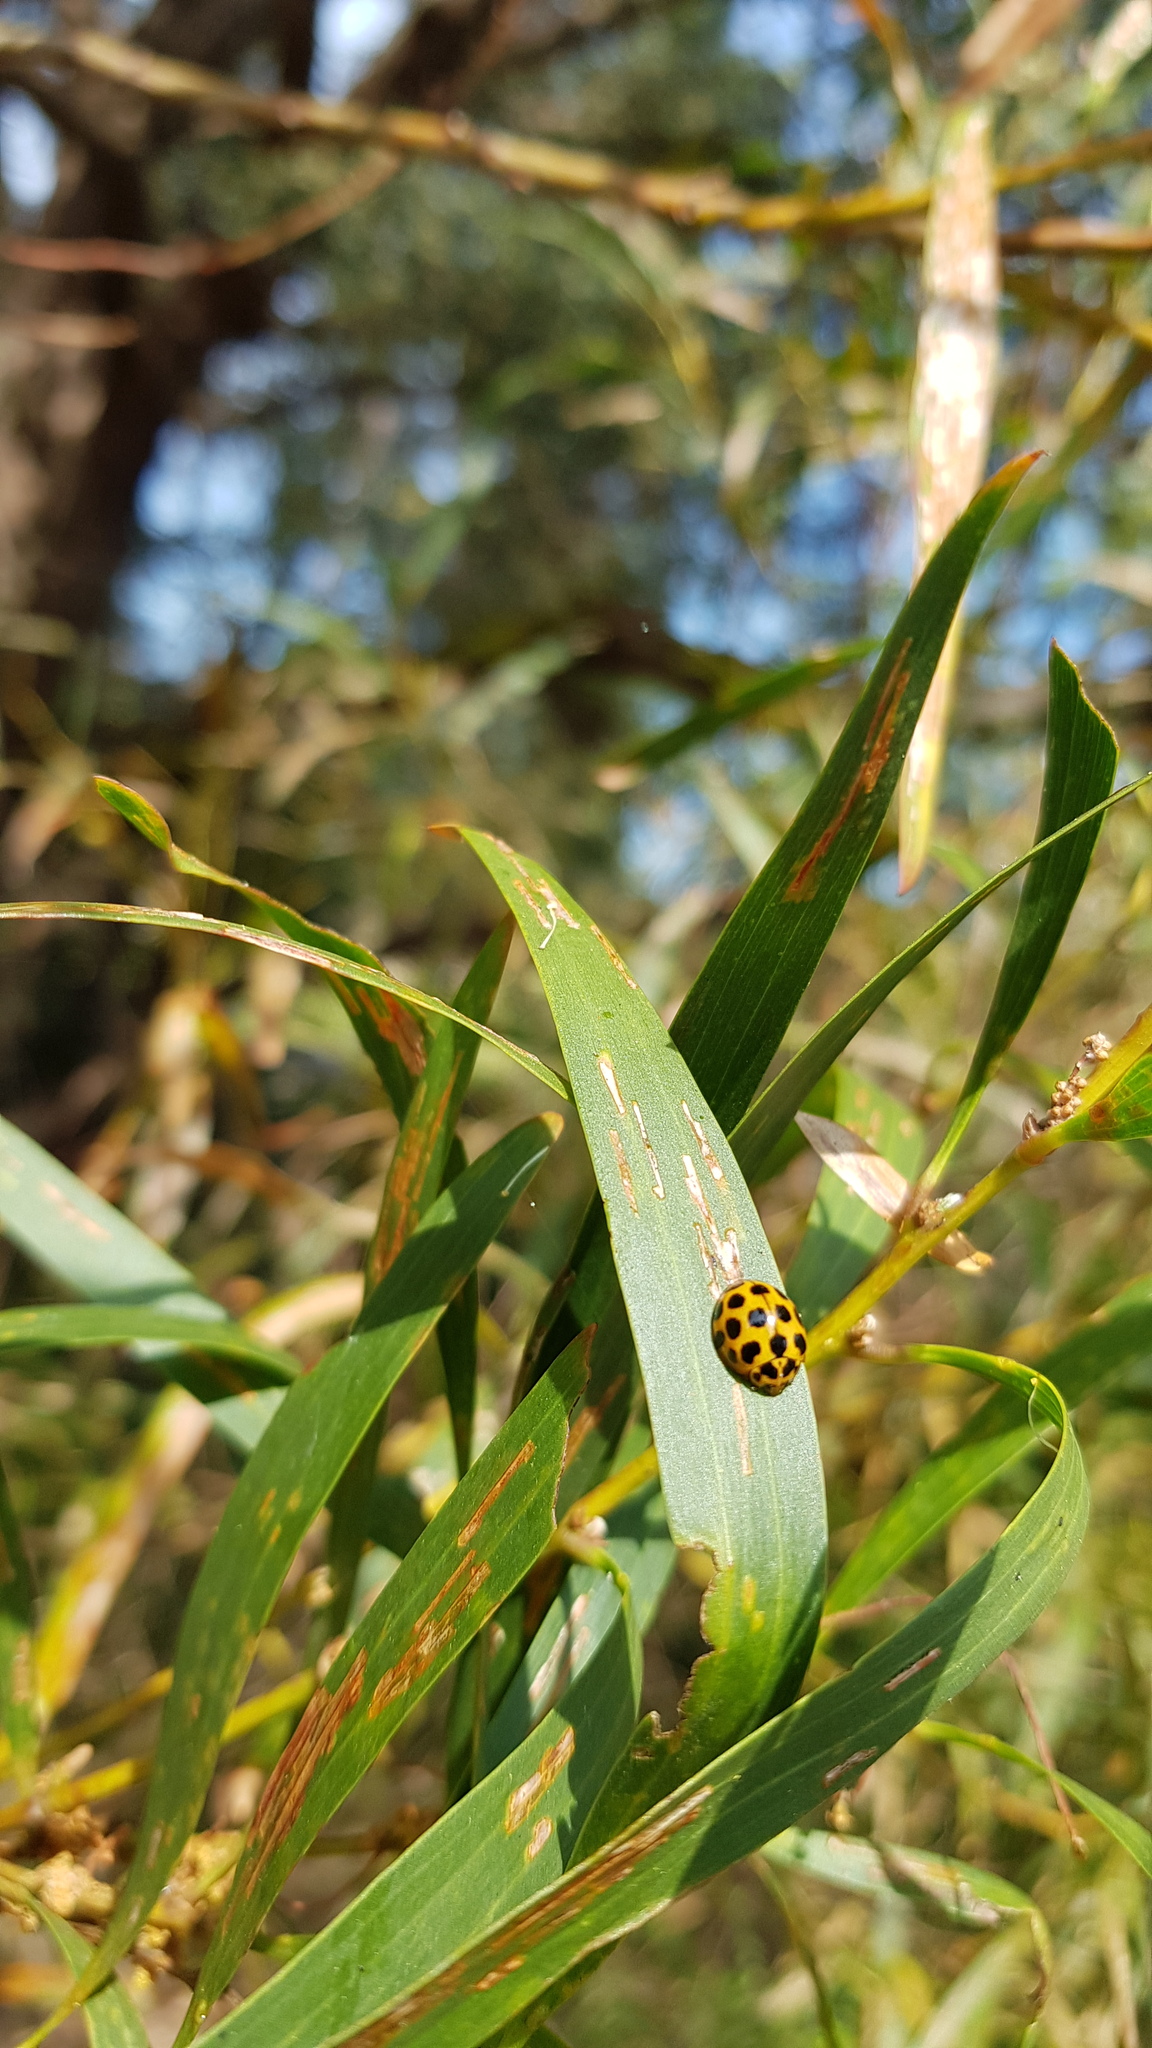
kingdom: Animalia
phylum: Arthropoda
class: Insecta
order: Coleoptera
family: Coccinellidae
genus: Harmonia
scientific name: Harmonia conformis
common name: Common spotted ladybird beetle
